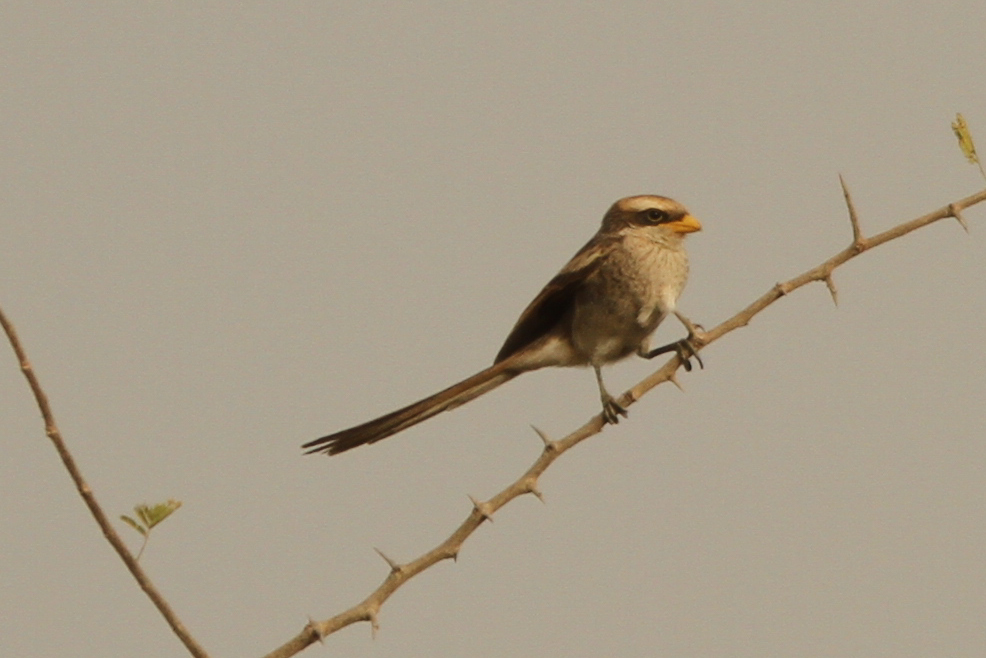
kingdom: Animalia
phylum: Chordata
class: Aves
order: Passeriformes
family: Laniidae
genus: Corvinella
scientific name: Corvinella corvina
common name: Yellow-billed shrike
